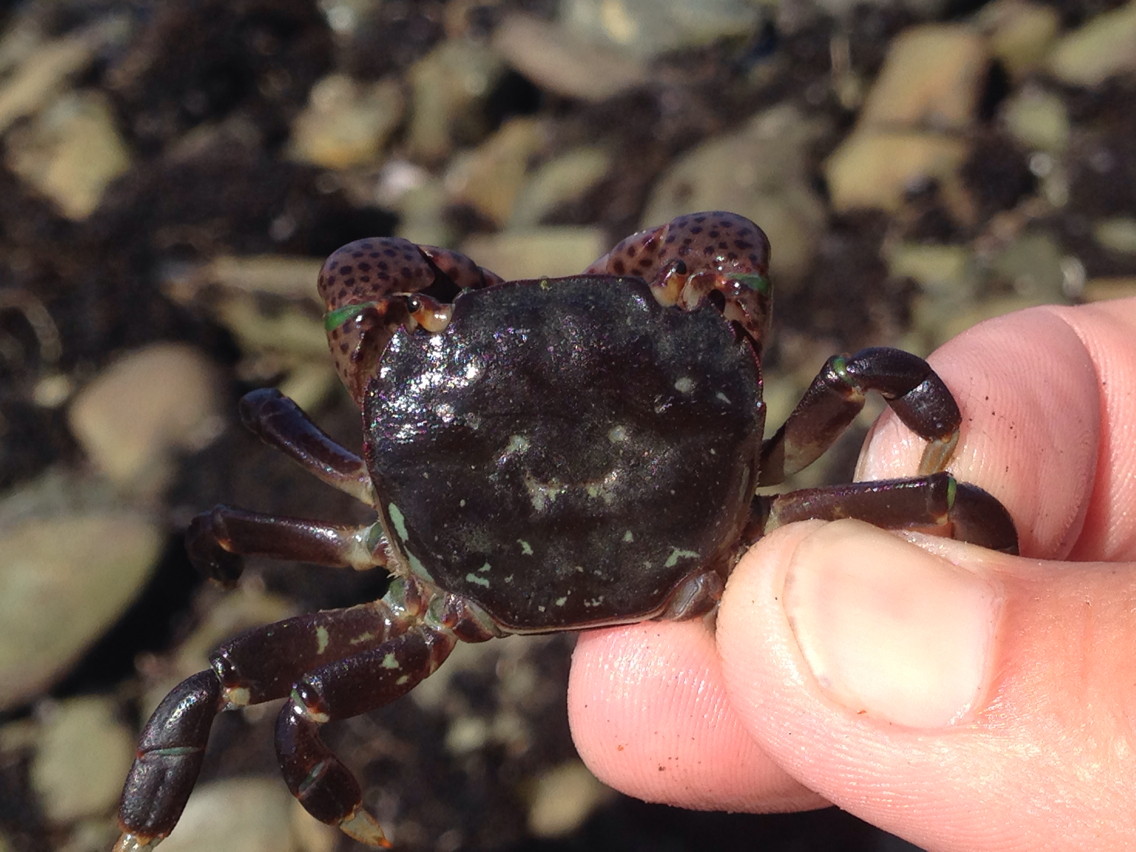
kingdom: Animalia
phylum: Arthropoda
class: Malacostraca
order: Decapoda
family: Varunidae
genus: Hemigrapsus
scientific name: Hemigrapsus nudus
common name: Purple shore crab
